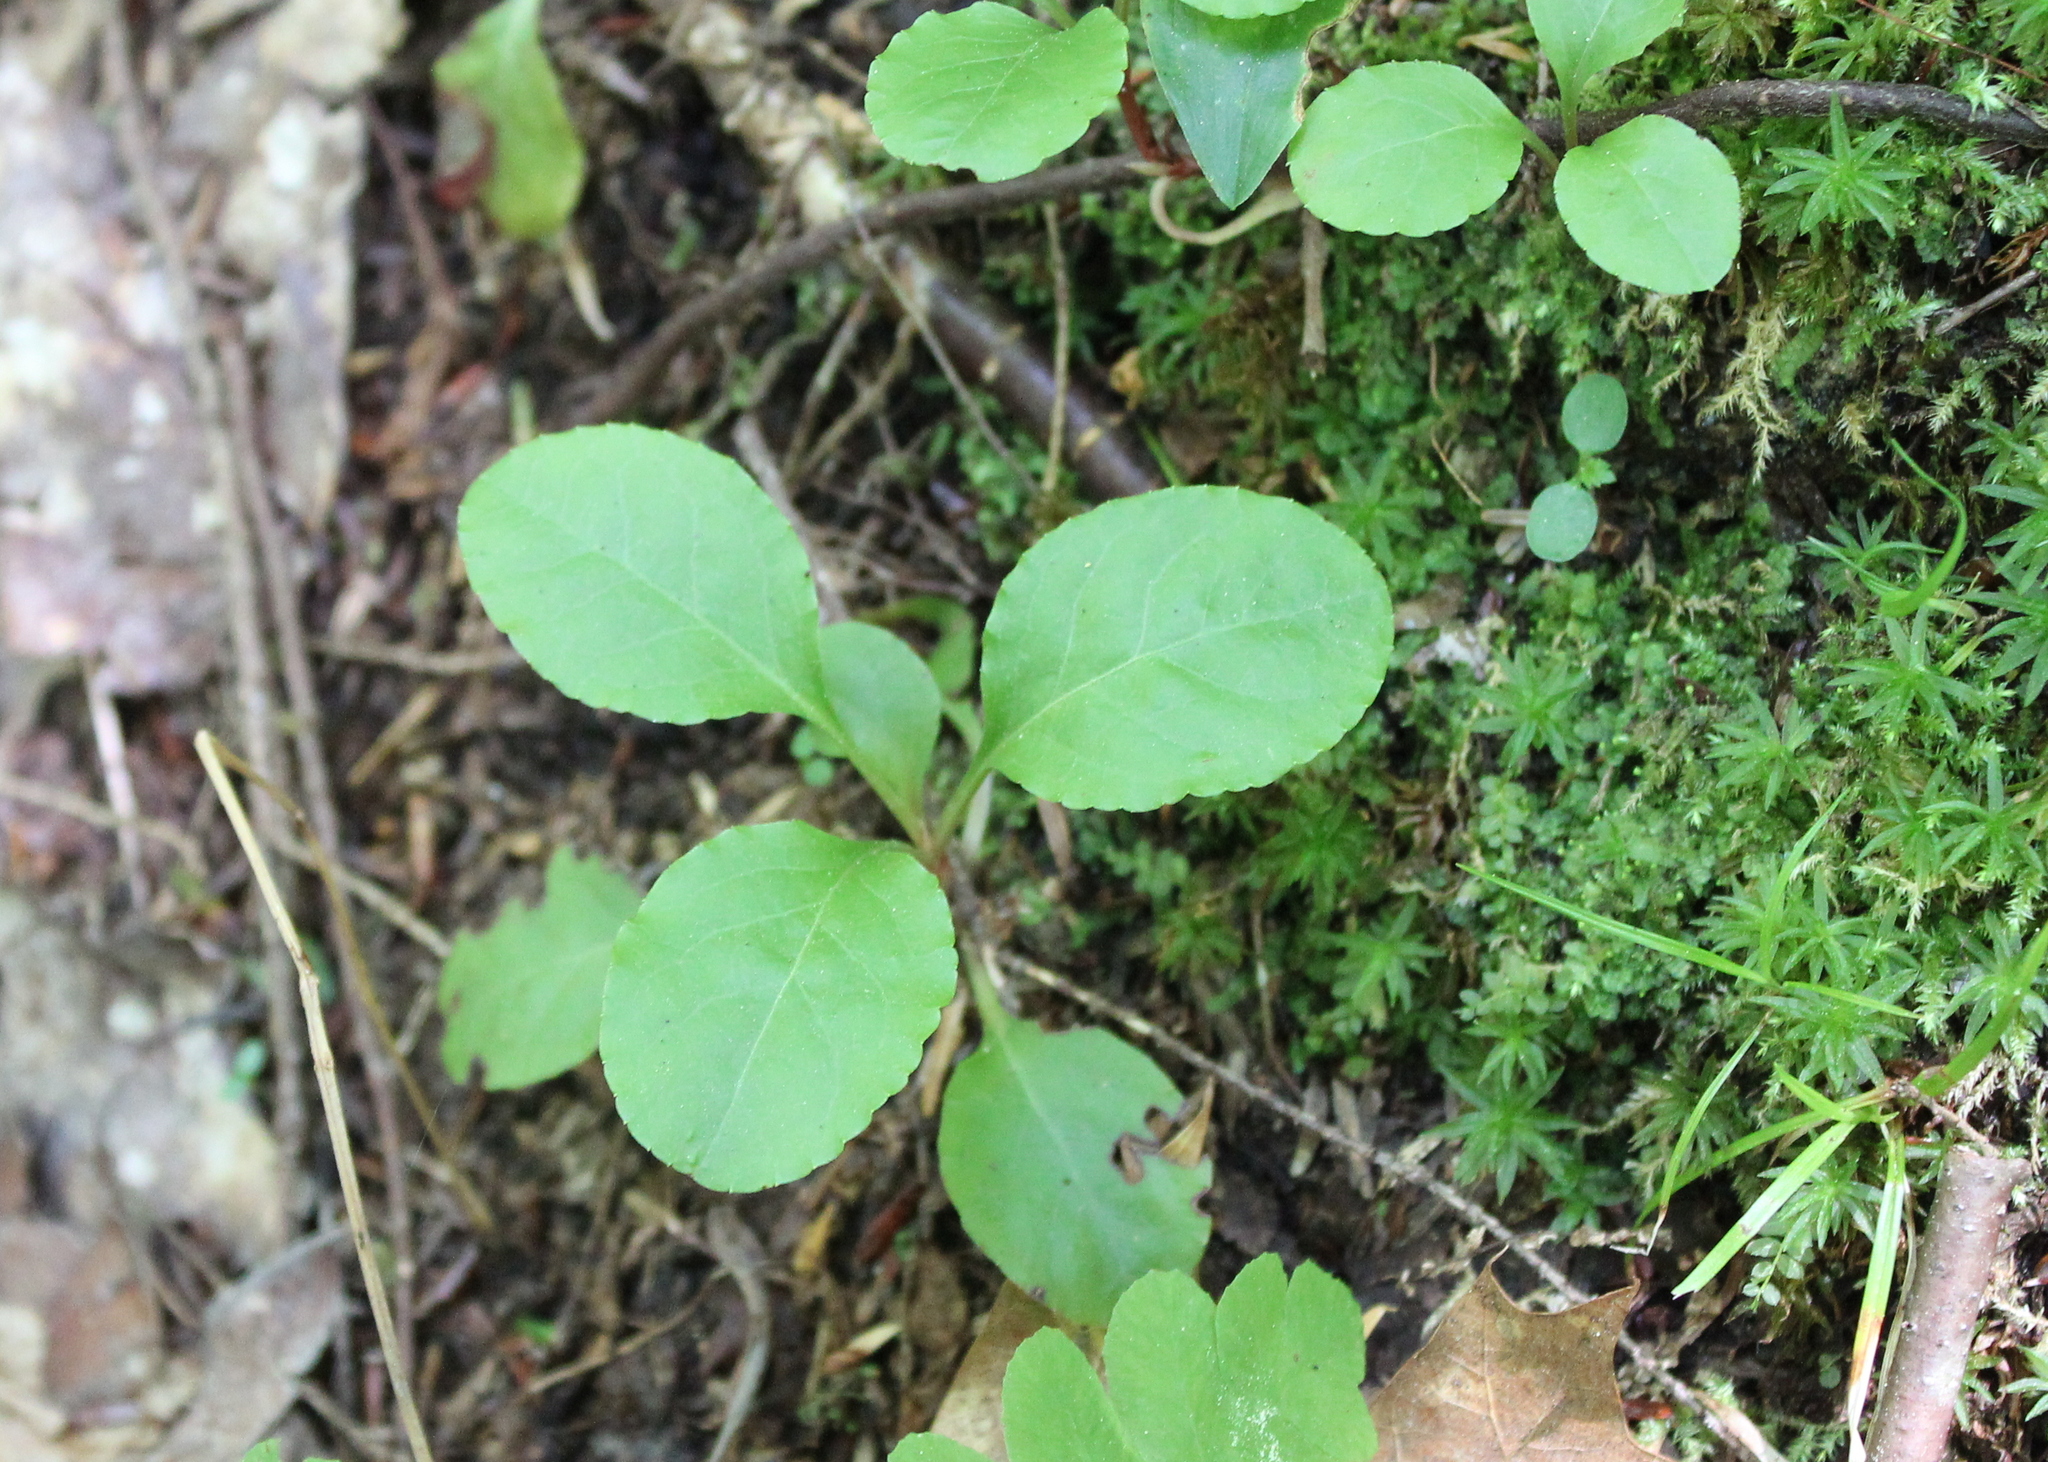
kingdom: Plantae
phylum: Tracheophyta
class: Magnoliopsida
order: Ericales
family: Ericaceae
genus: Pyrola
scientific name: Pyrola elliptica
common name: Shinleaf
